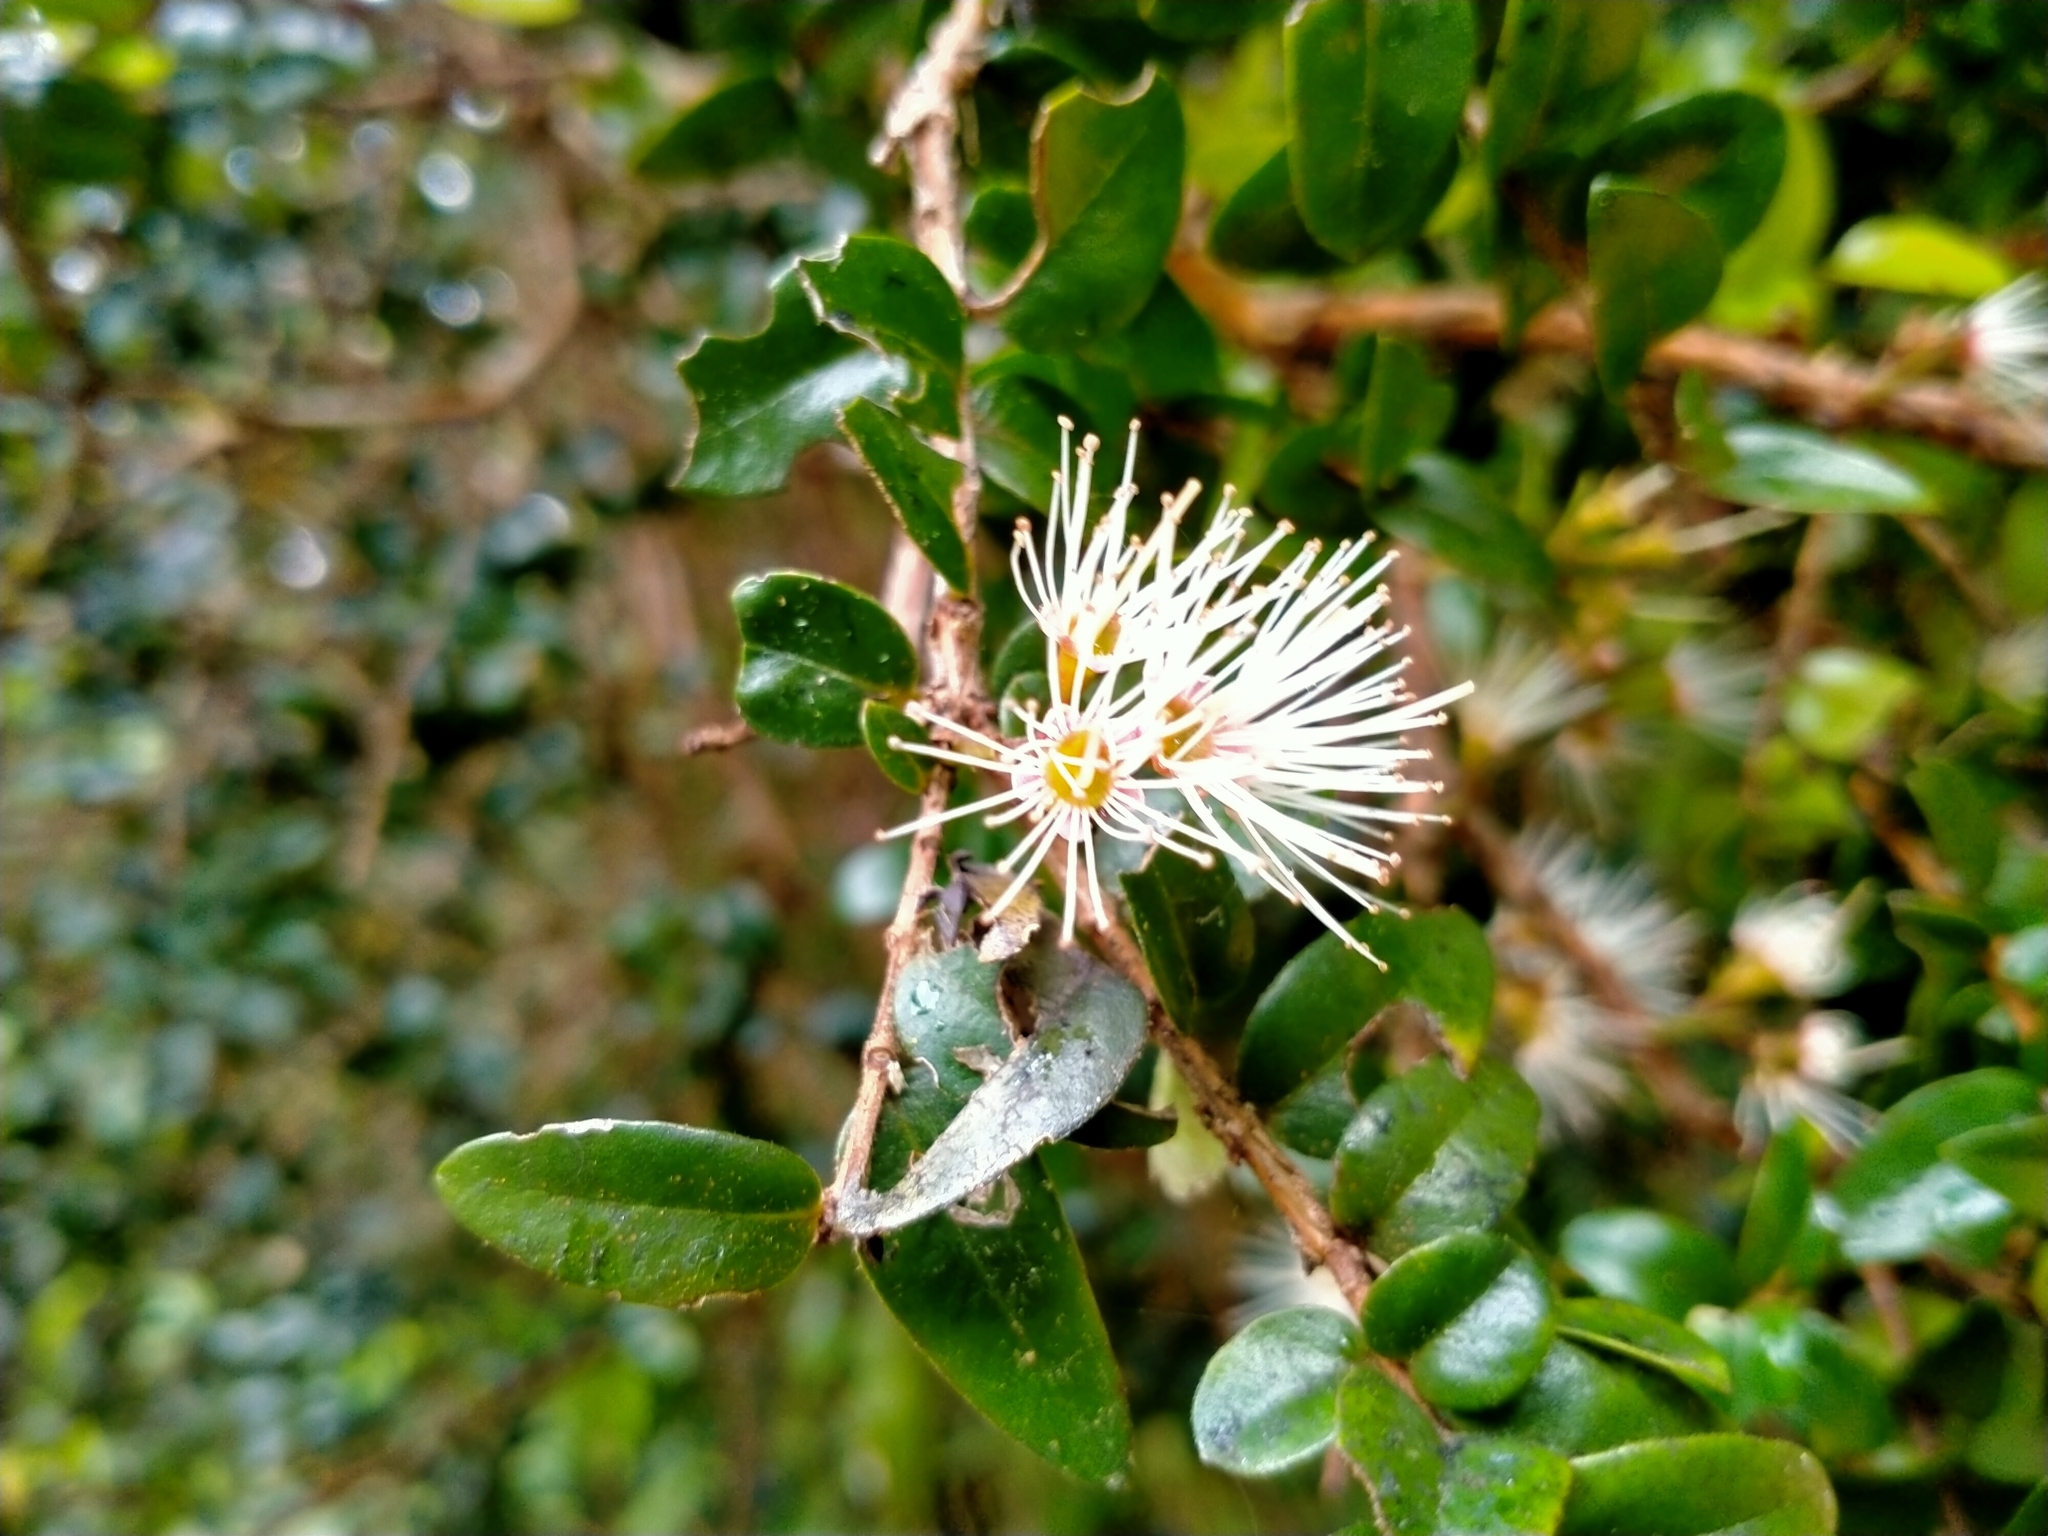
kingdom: Plantae
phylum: Tracheophyta
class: Magnoliopsida
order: Myrtales
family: Myrtaceae
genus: Metrosideros
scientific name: Metrosideros diffusa
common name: Small ratavine
